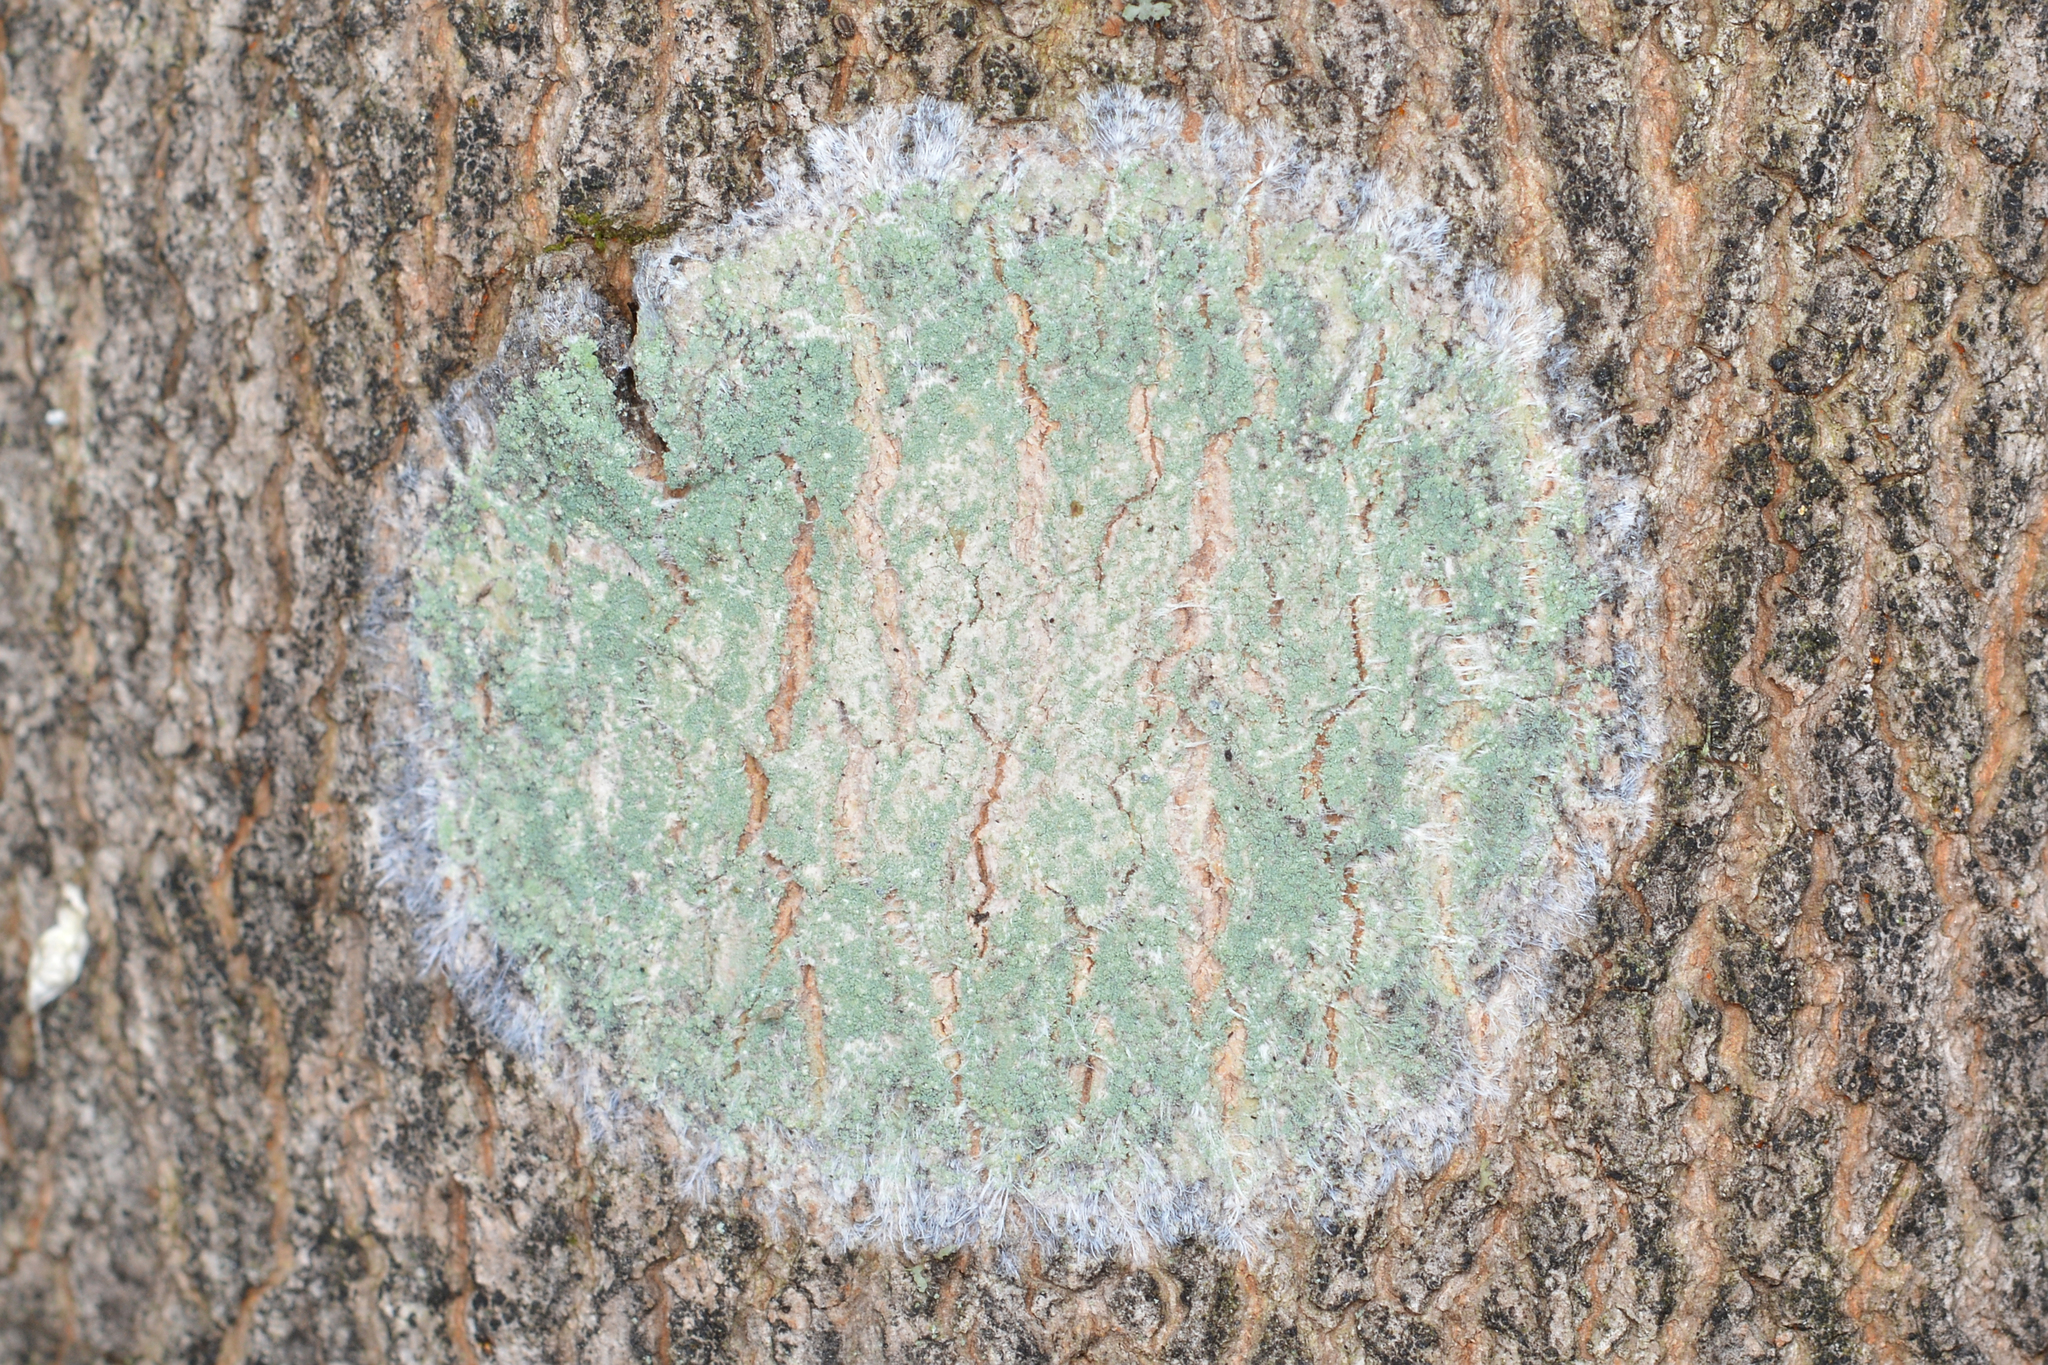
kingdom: Fungi
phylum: Ascomycota
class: Lecanoromycetes
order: Pertusariales
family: Pertusariaceae
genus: Verseghya
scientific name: Verseghya thysanophora
